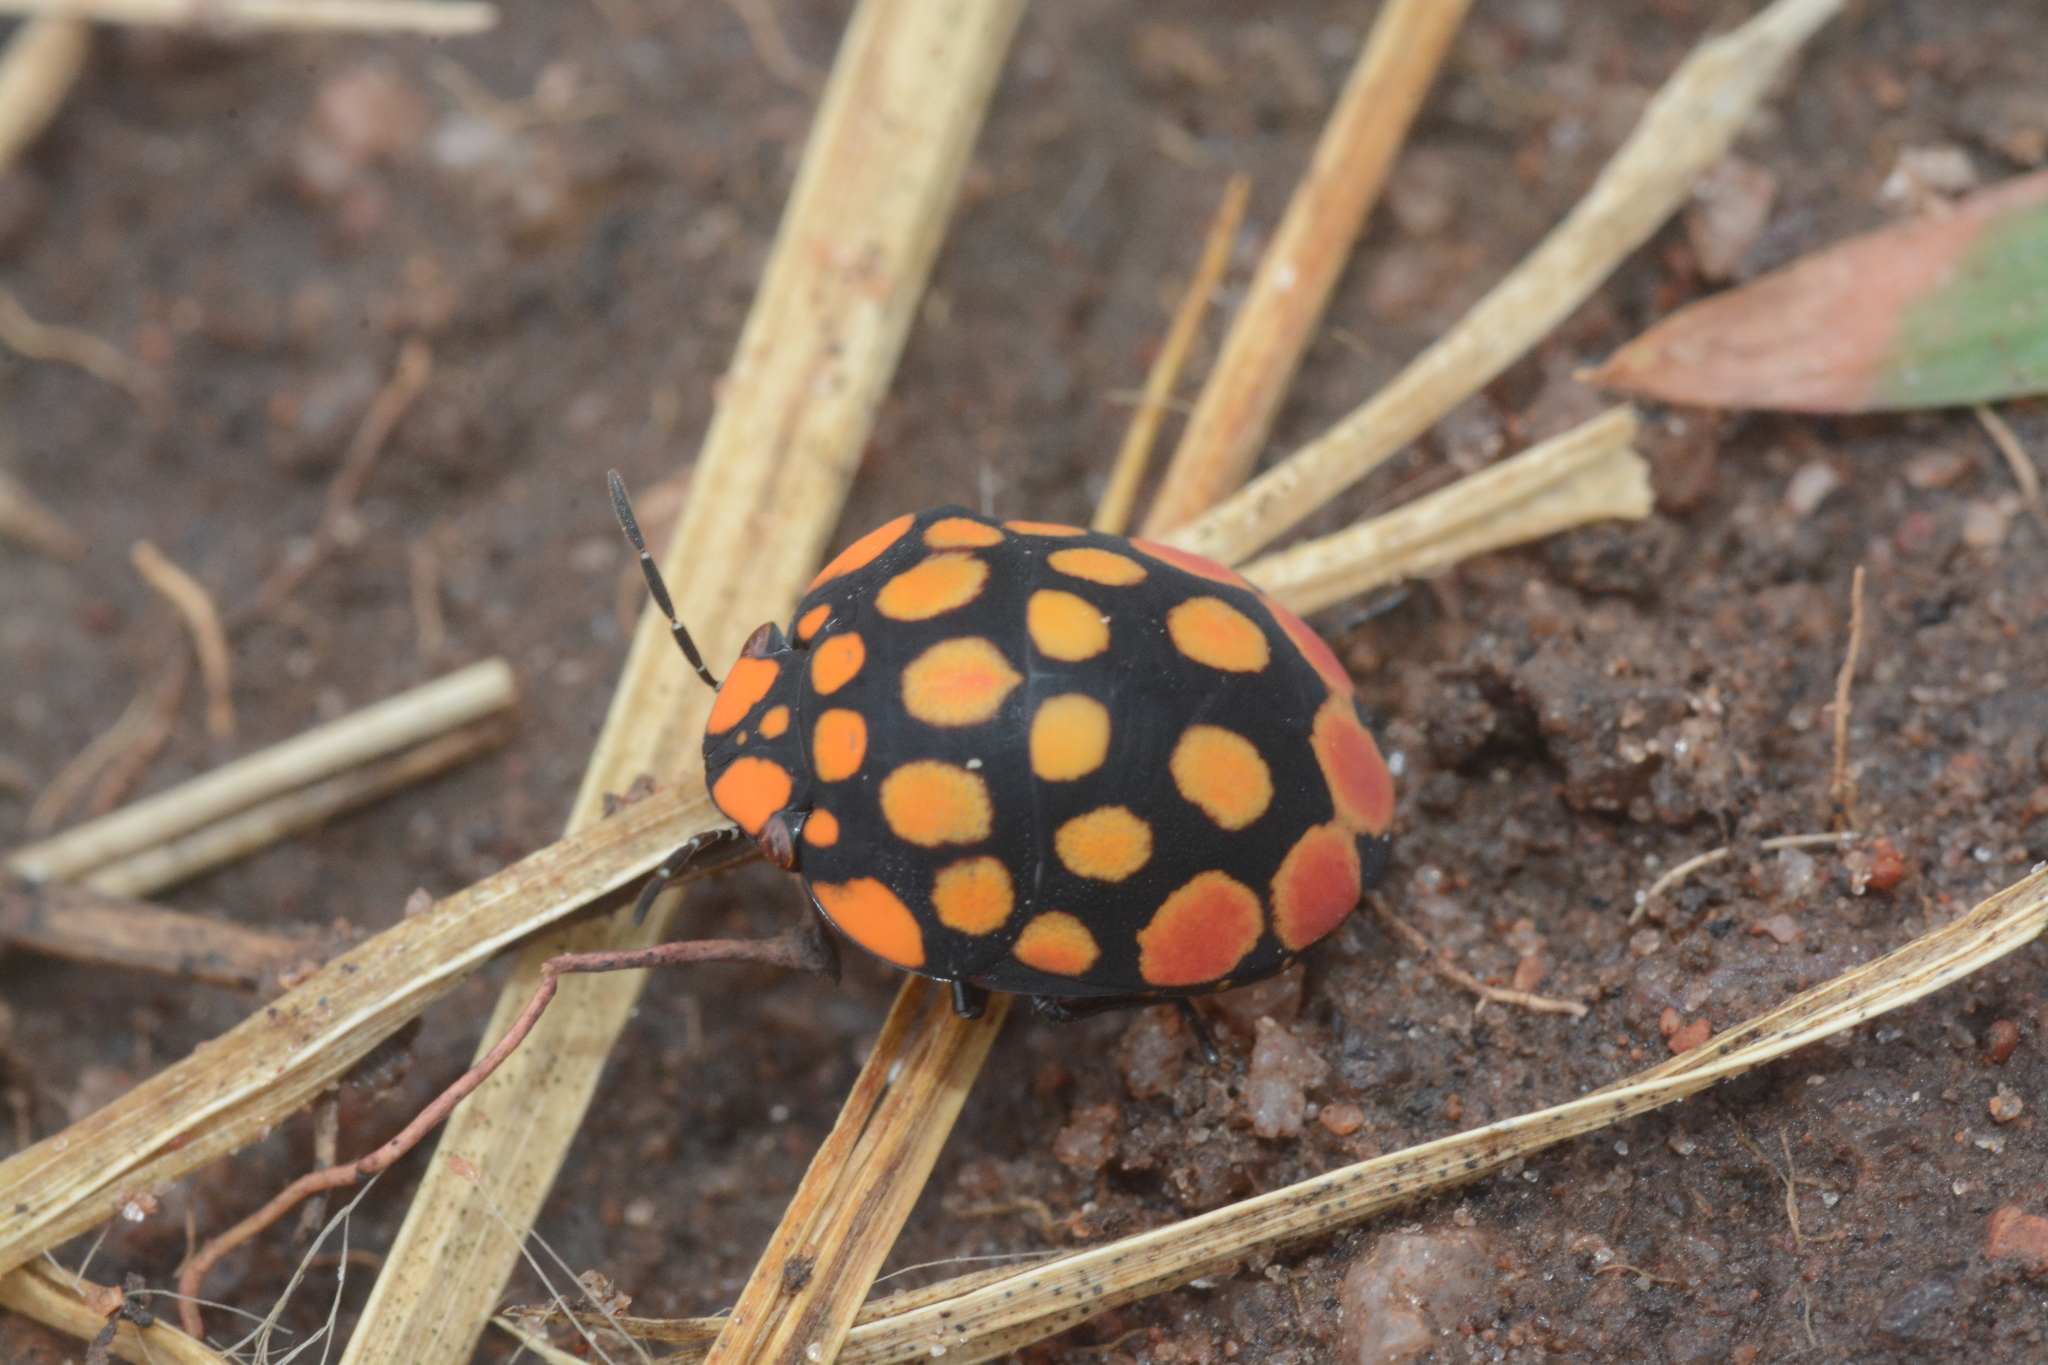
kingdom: Animalia
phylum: Arthropoda
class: Insecta
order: Hemiptera
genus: Steganocerus
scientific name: Steganocerus multipunctatus
